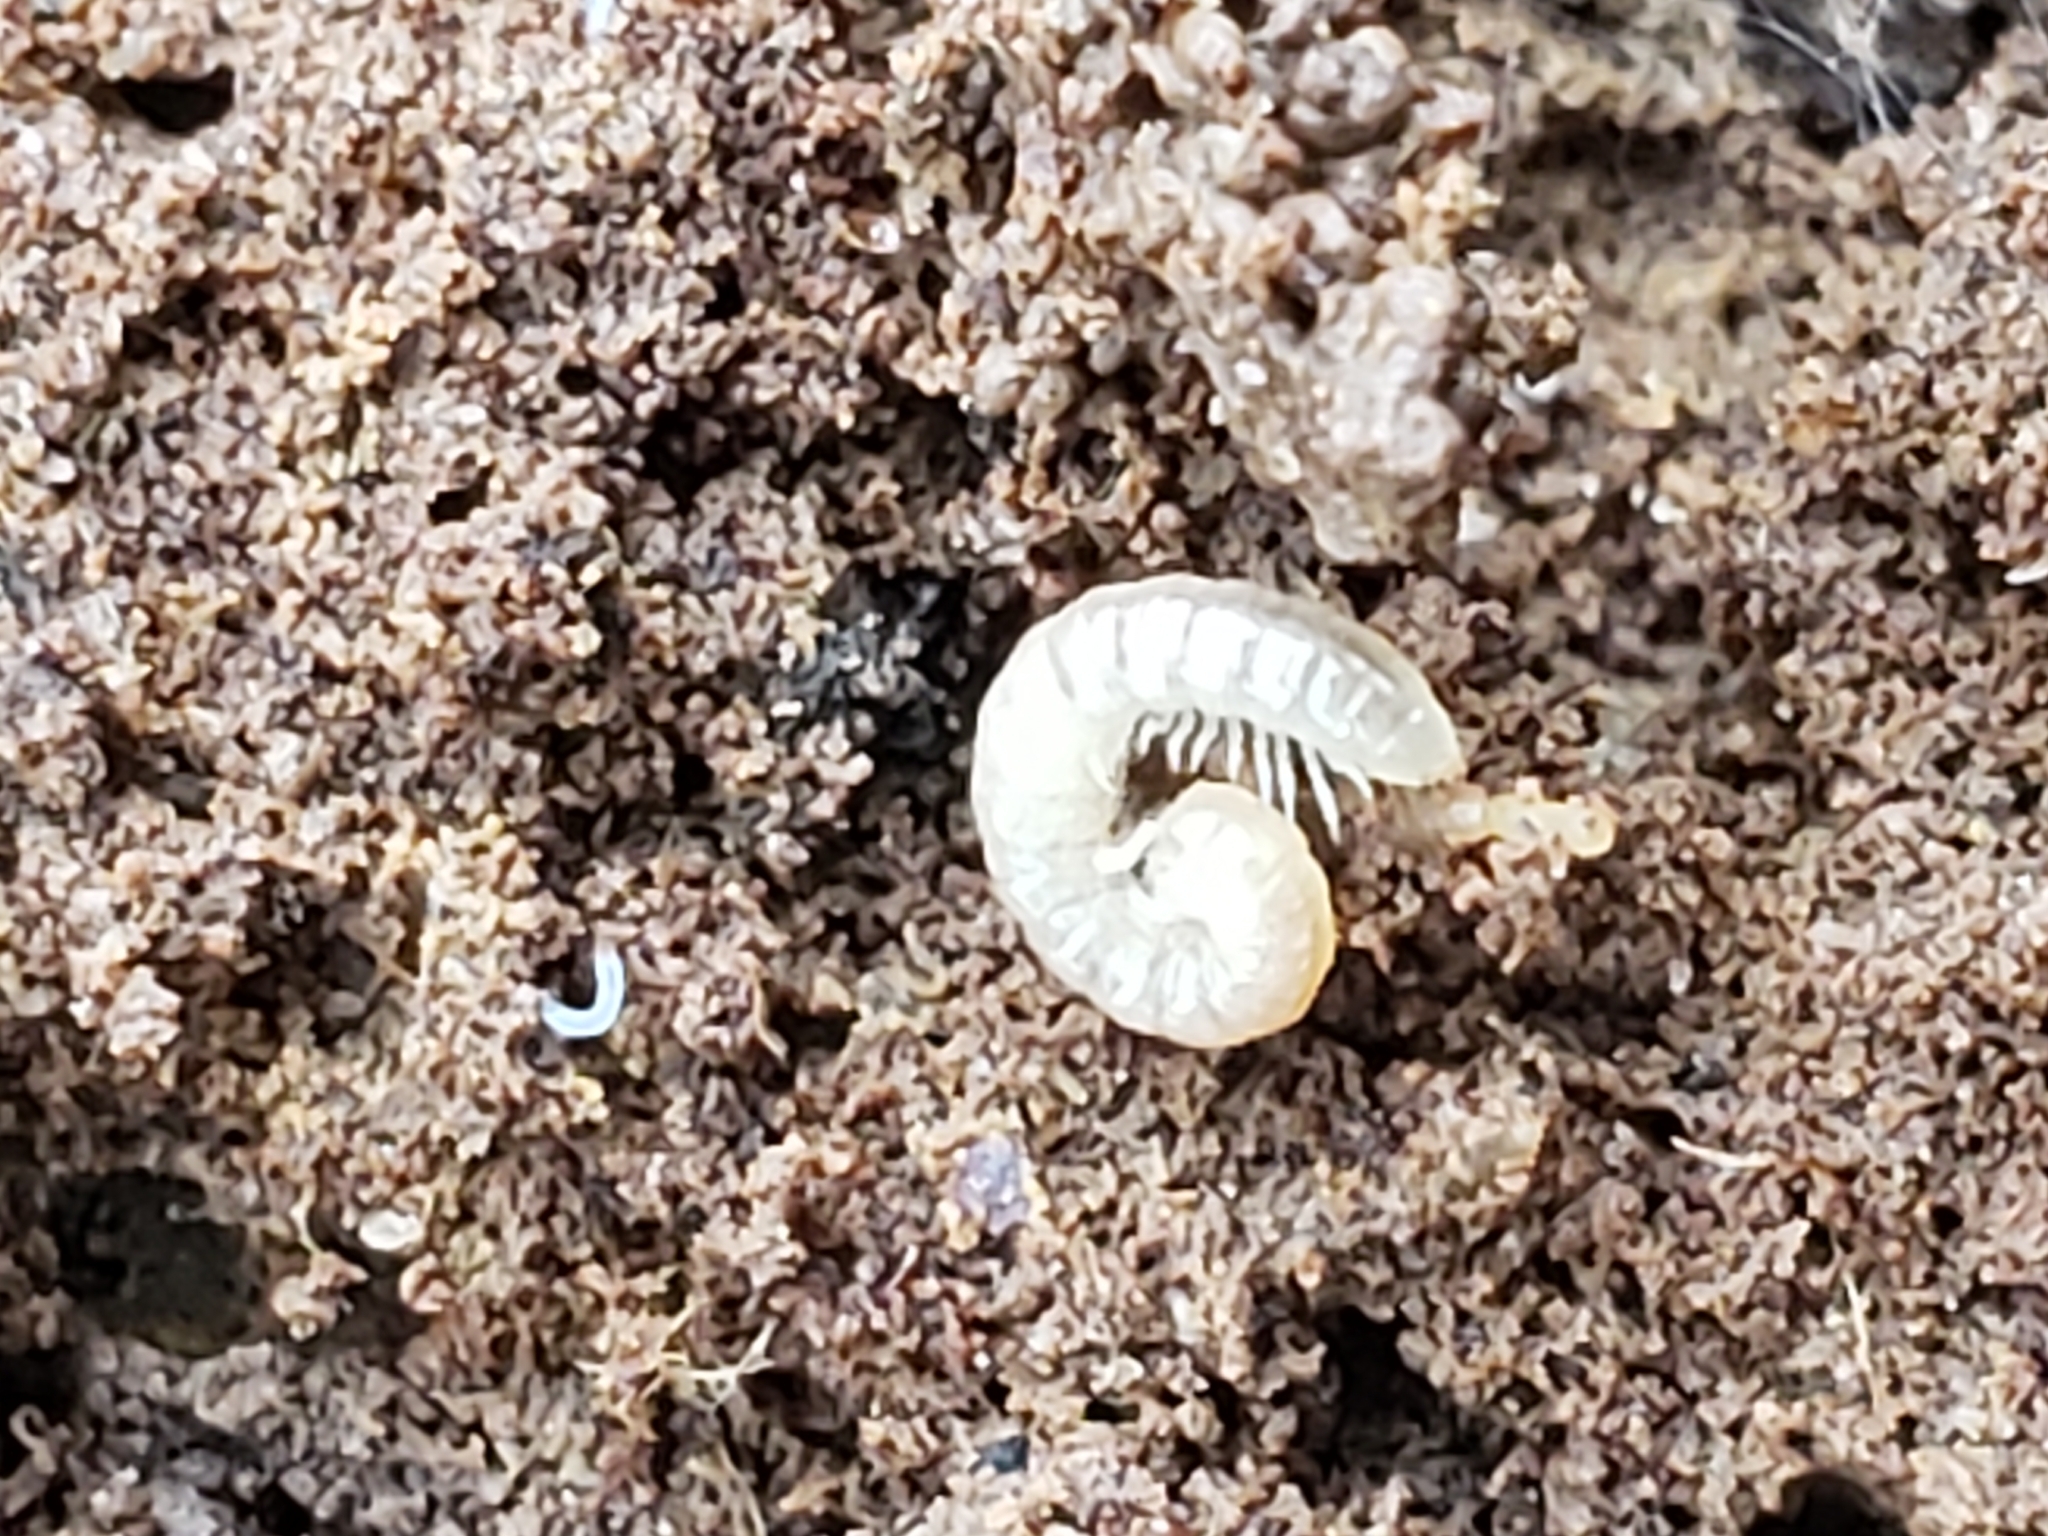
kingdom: Animalia
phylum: Arthropoda
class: Diplopoda
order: Polydesmida
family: Paradoxosomatidae
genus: Oxidus
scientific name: Oxidus gracilis
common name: Greenhouse millipede
